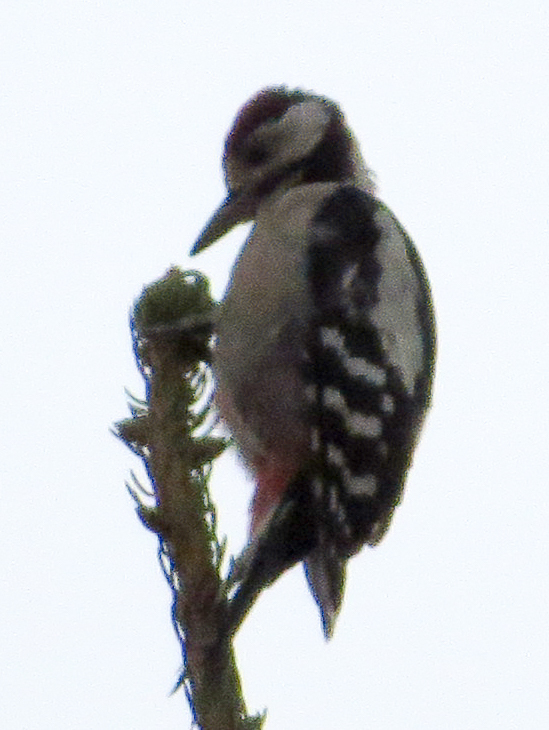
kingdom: Animalia
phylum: Chordata
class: Aves
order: Piciformes
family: Picidae
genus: Dendrocopos
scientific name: Dendrocopos major
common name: Great spotted woodpecker
